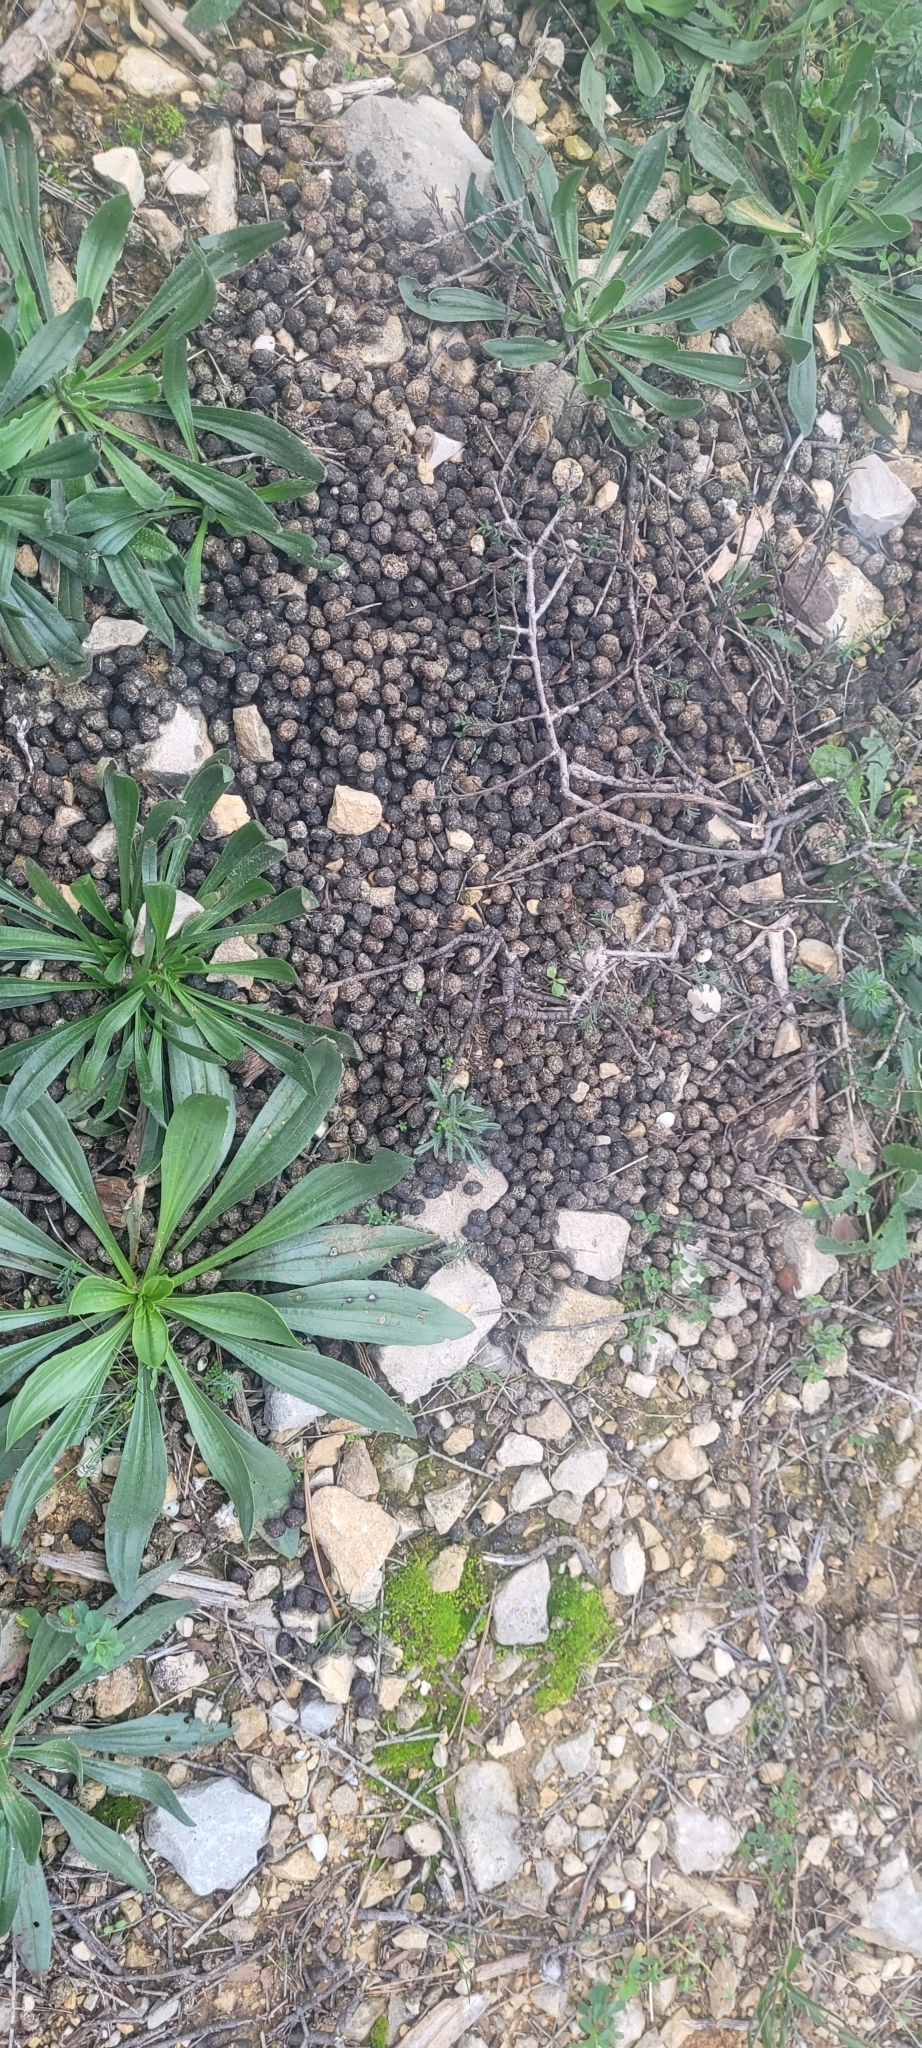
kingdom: Animalia
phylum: Chordata
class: Mammalia
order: Lagomorpha
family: Leporidae
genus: Oryctolagus
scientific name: Oryctolagus cuniculus
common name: European rabbit
